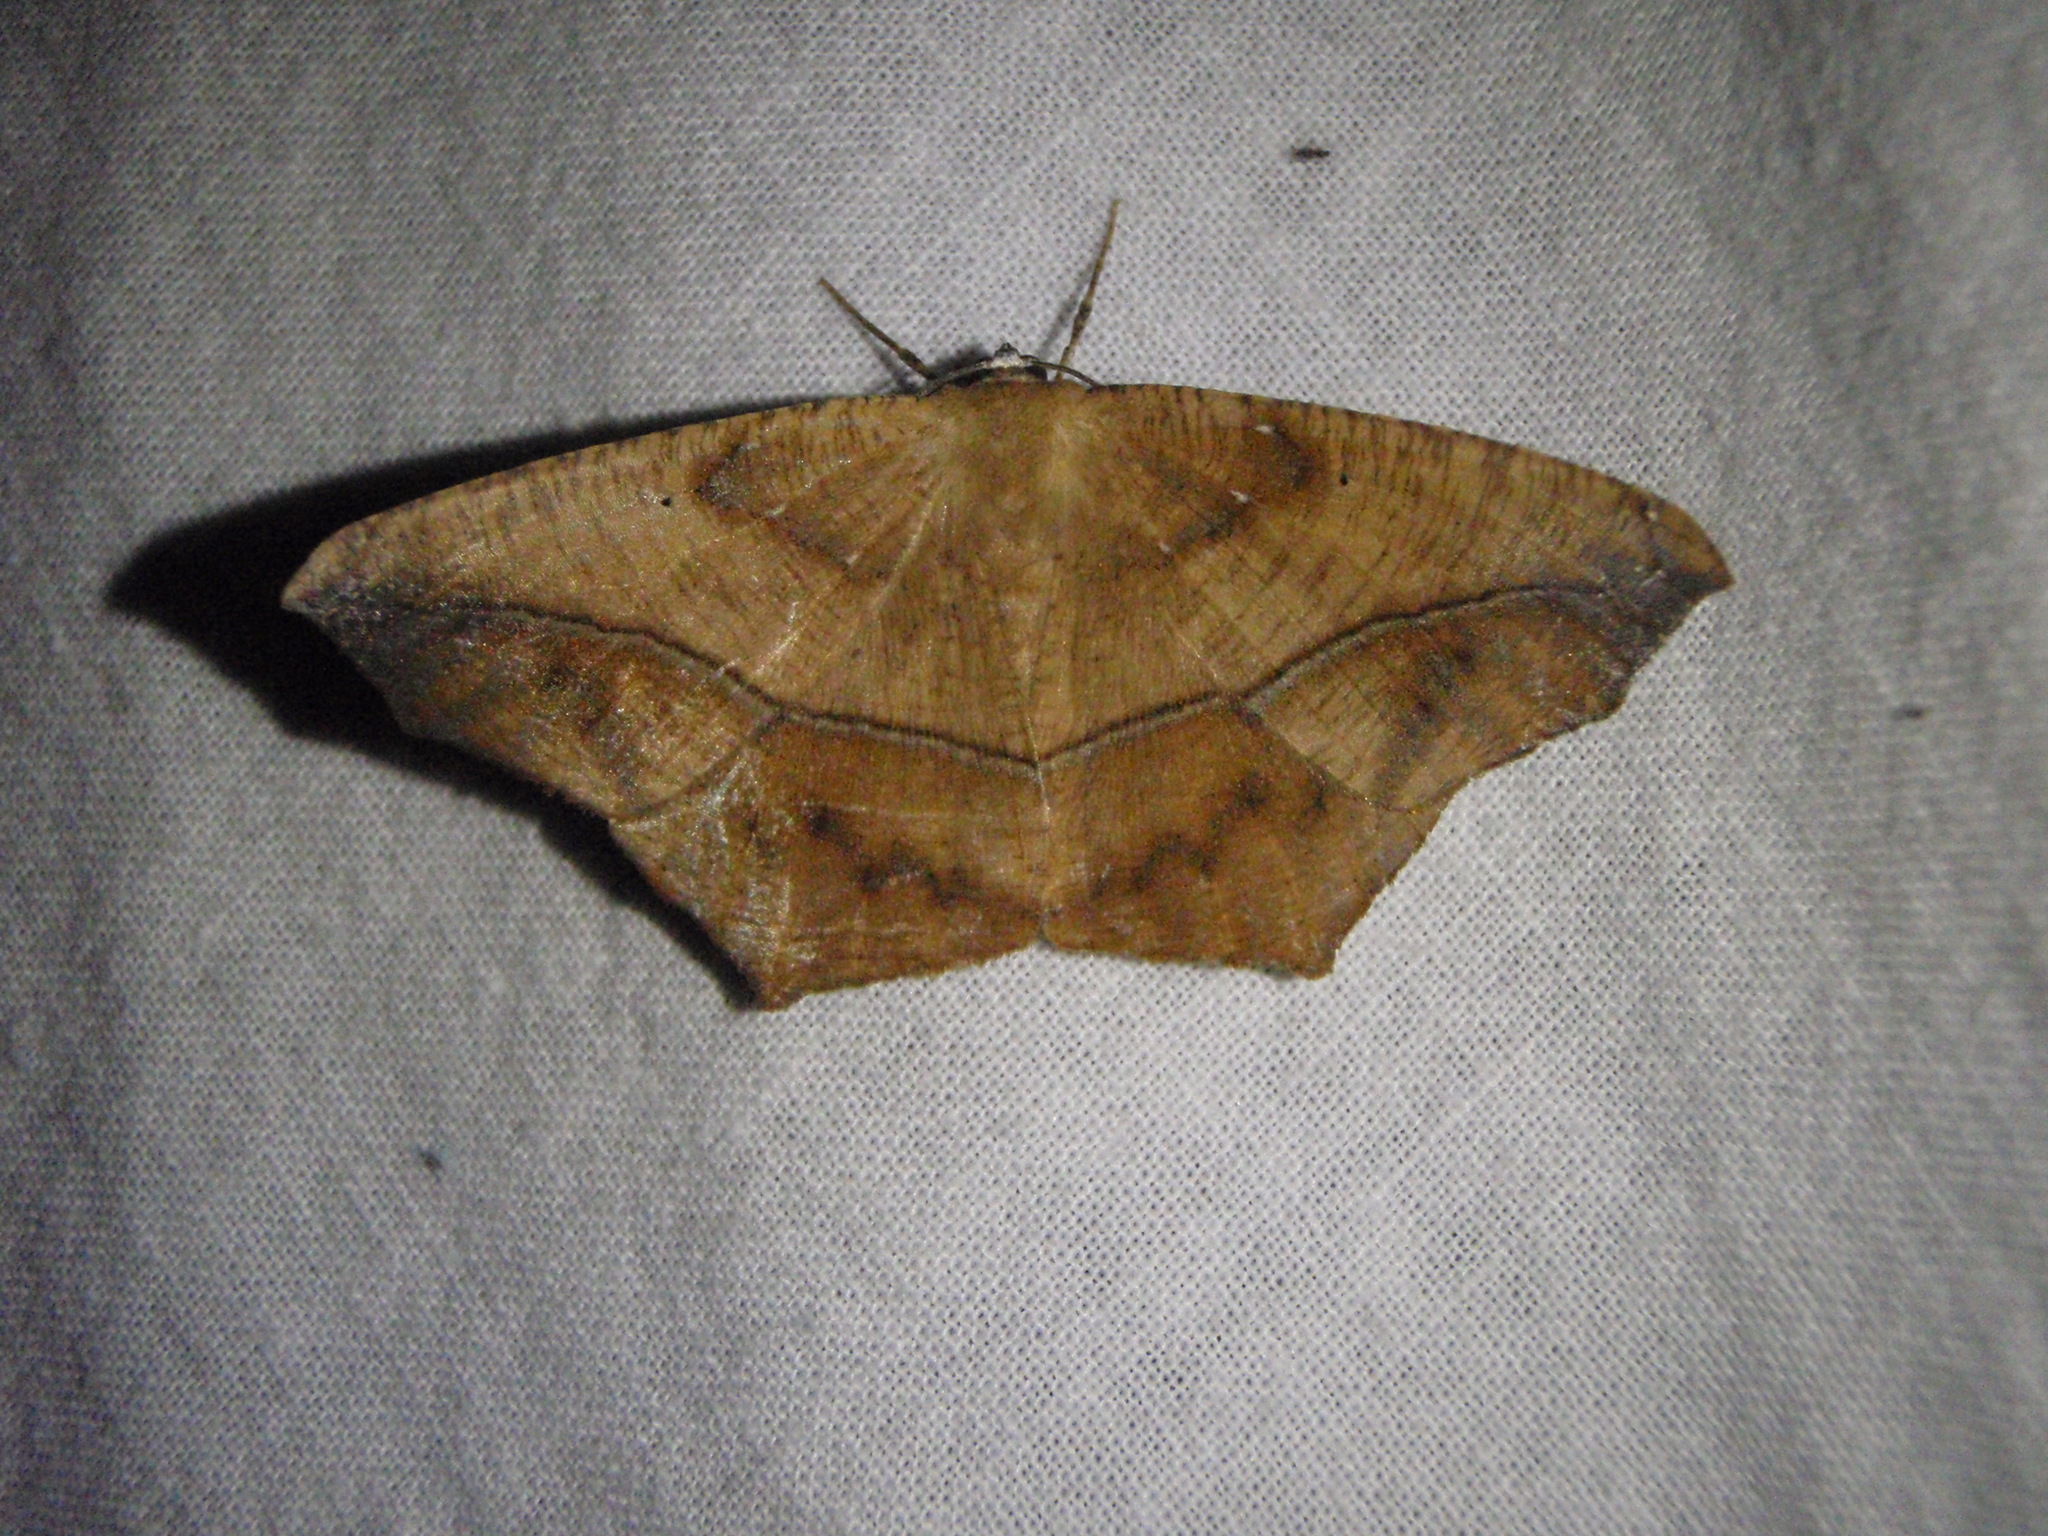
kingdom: Animalia
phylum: Arthropoda
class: Insecta
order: Lepidoptera
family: Geometridae
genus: Prochoerodes
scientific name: Prochoerodes lineola
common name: Large maple spanworm
